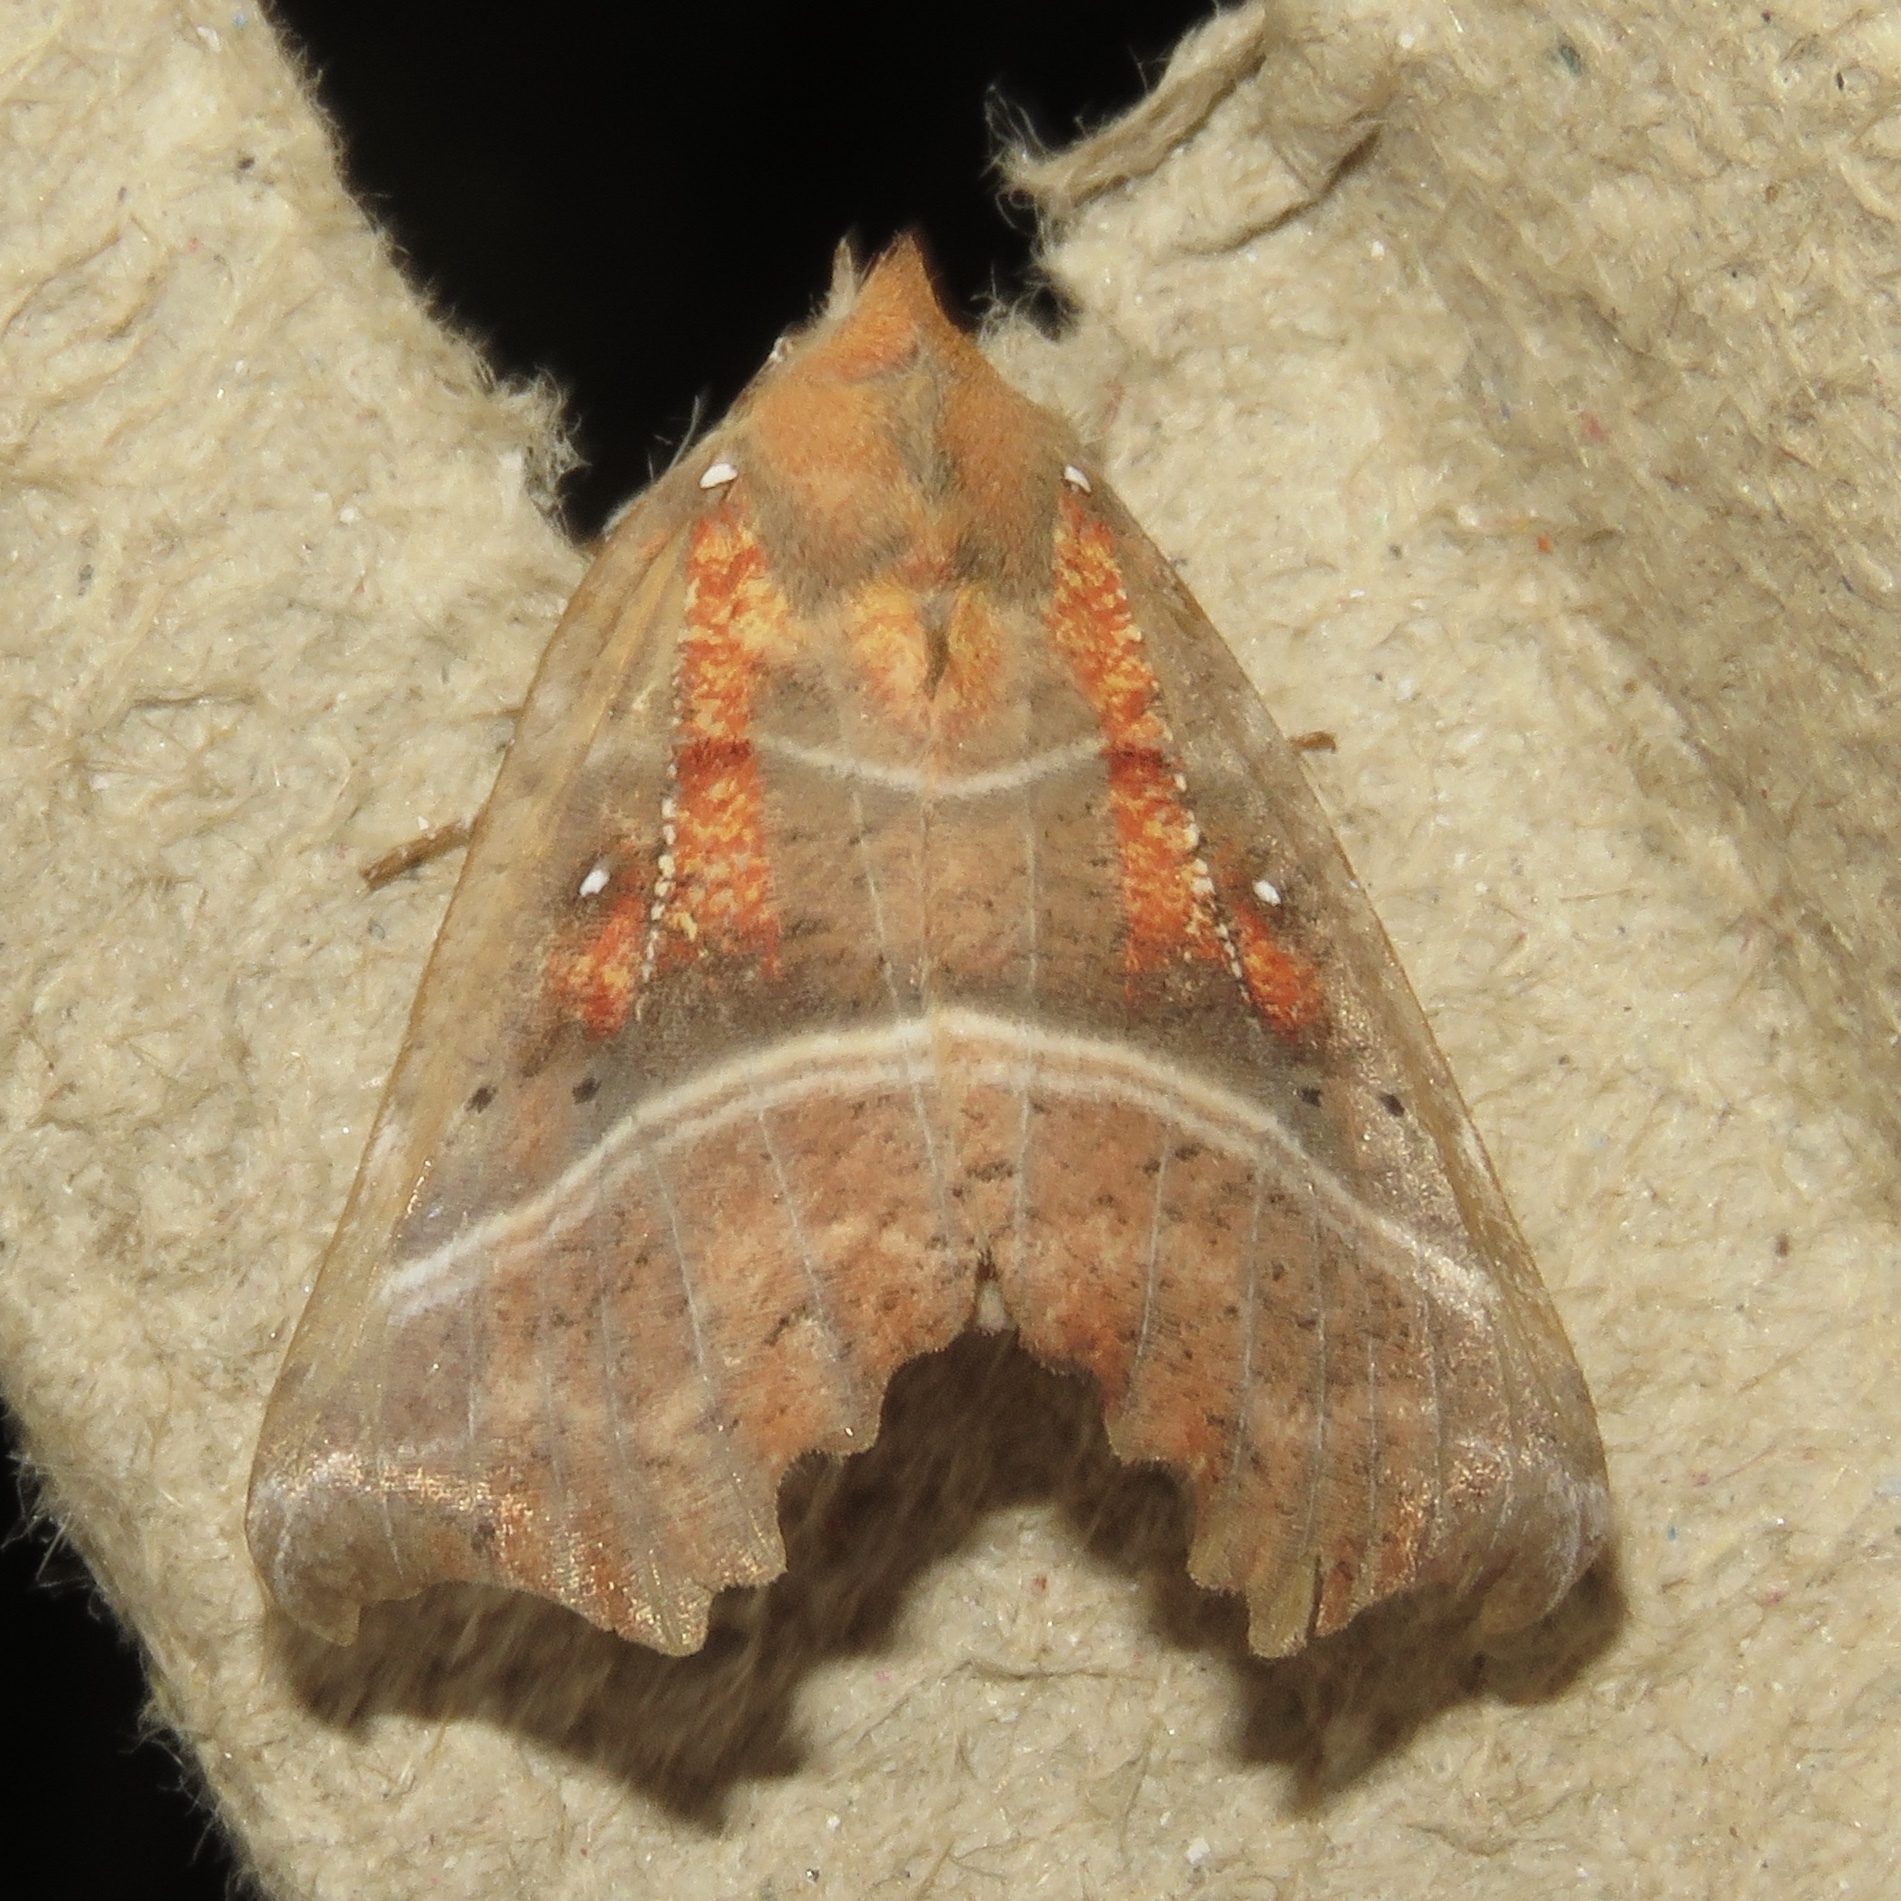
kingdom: Animalia
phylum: Arthropoda
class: Insecta
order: Lepidoptera
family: Erebidae
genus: Scoliopteryx
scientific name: Scoliopteryx libatrix
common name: Herald
